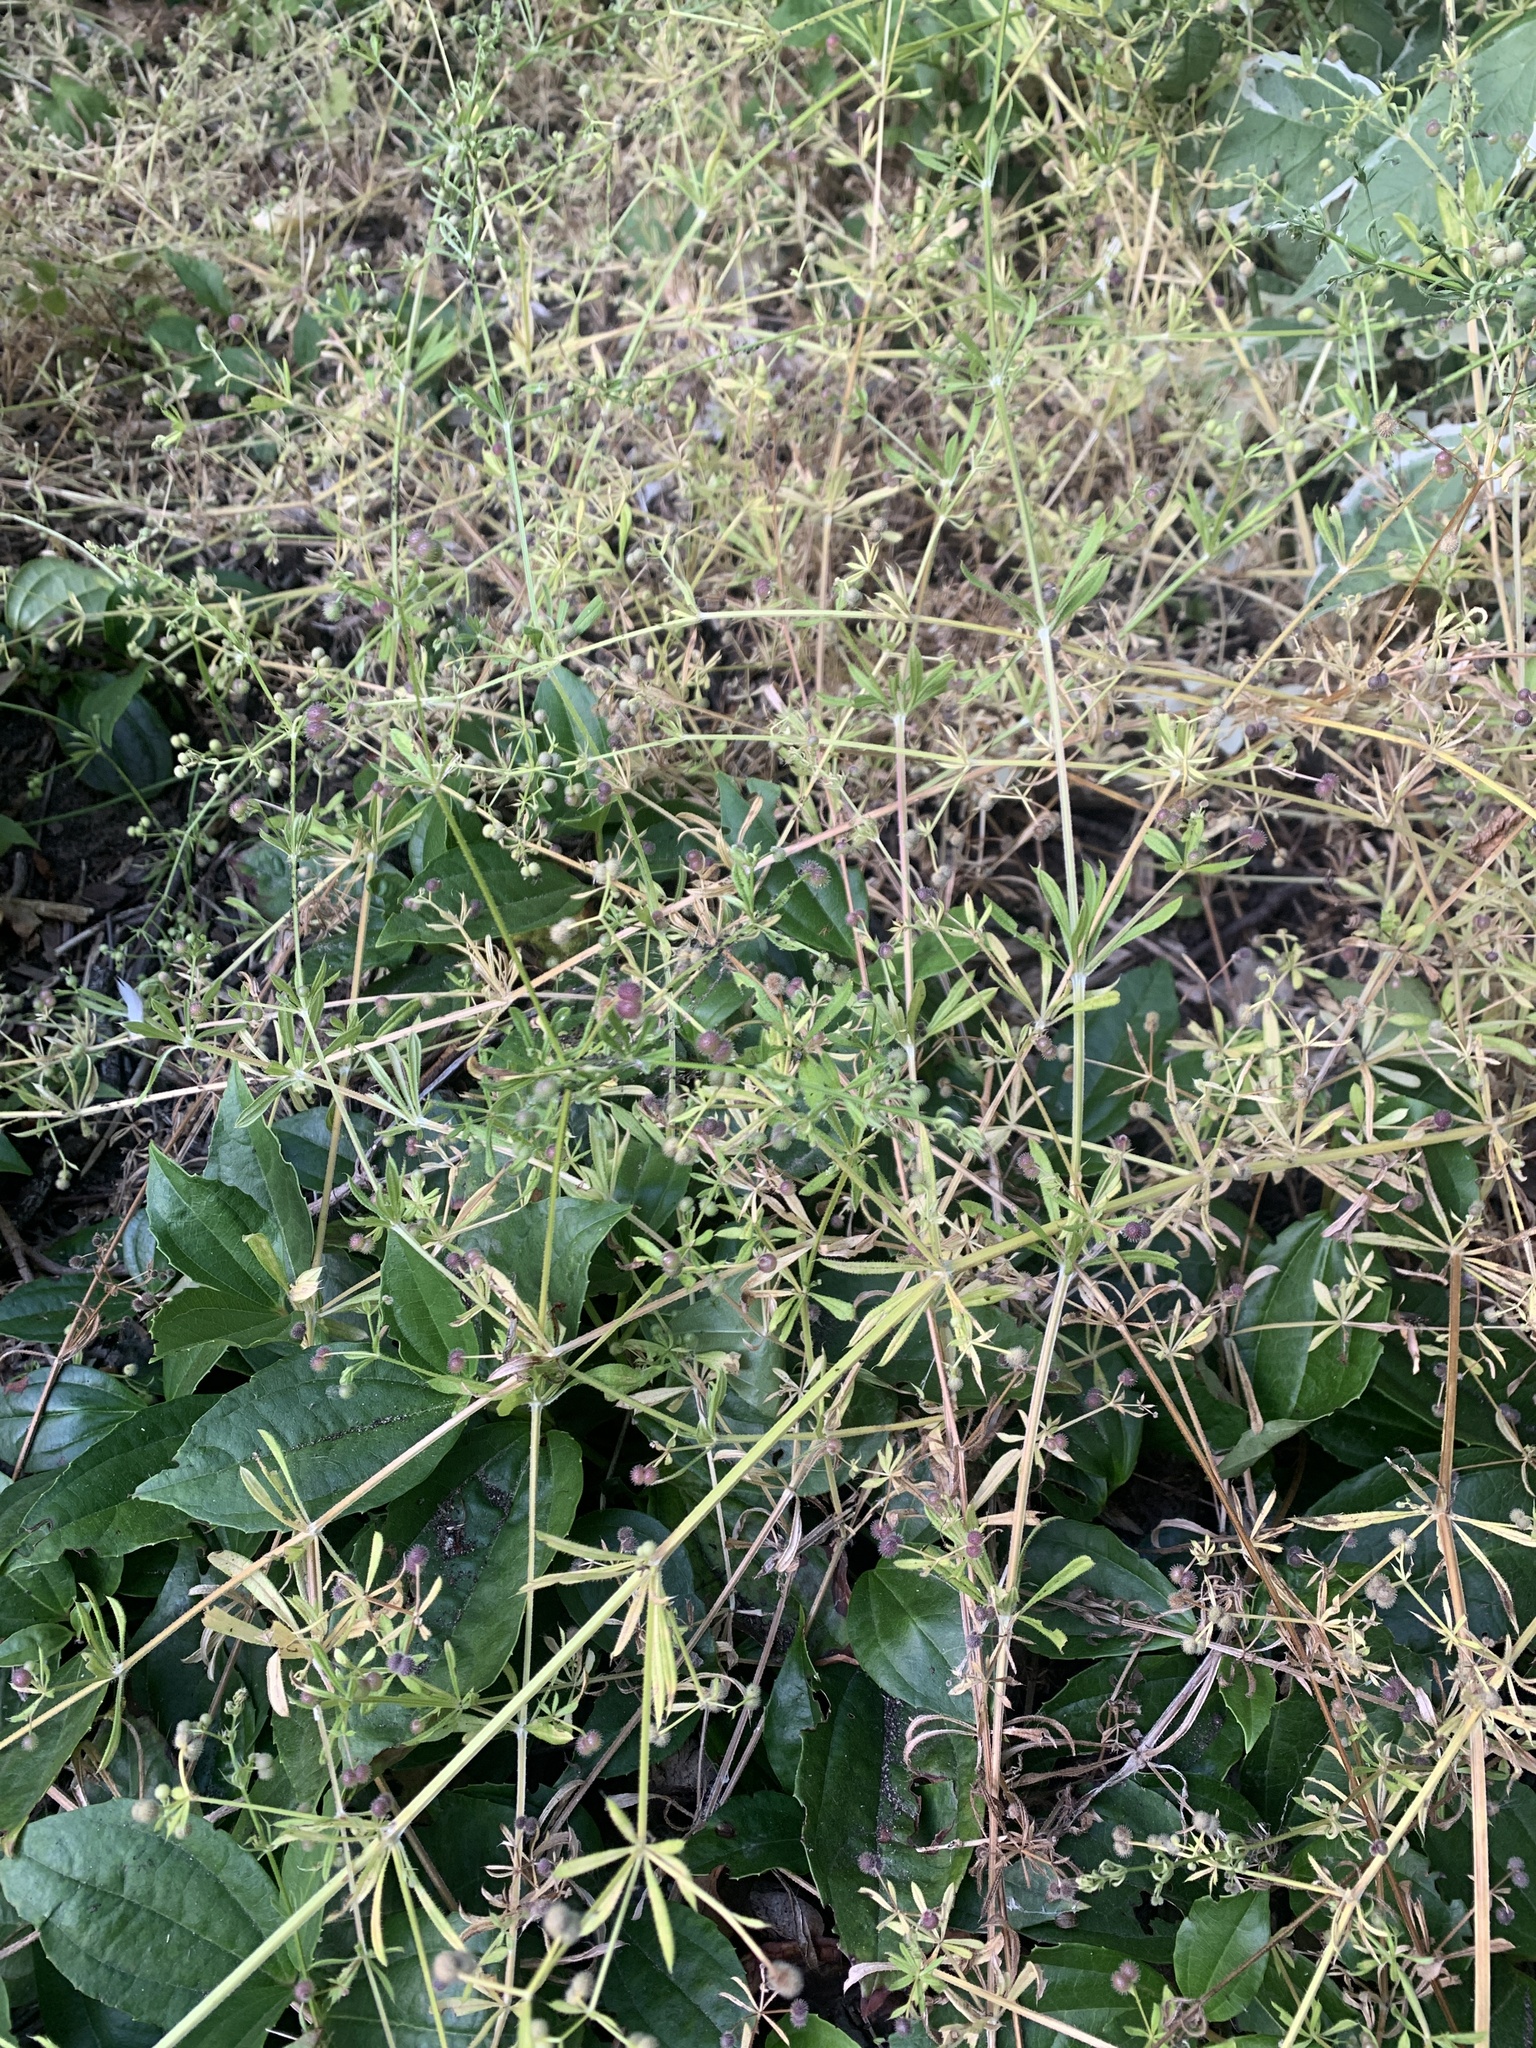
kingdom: Plantae
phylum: Tracheophyta
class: Magnoliopsida
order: Gentianales
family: Rubiaceae
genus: Galium
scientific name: Galium aparine
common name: Cleavers
